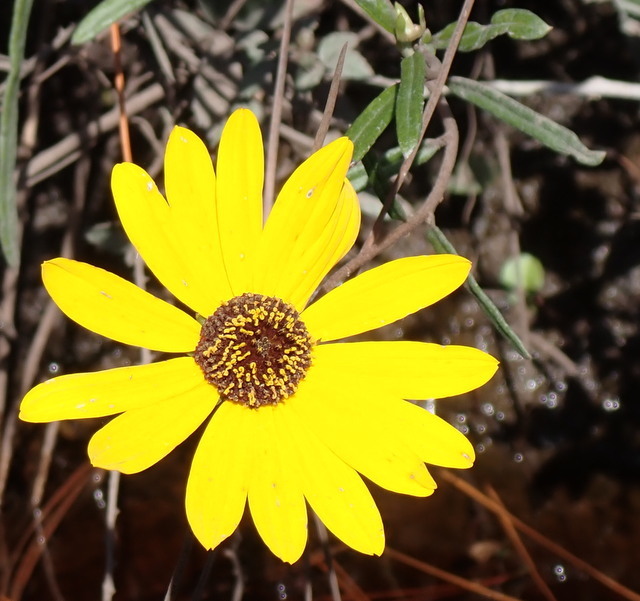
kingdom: Plantae
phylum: Tracheophyta
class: Magnoliopsida
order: Asterales
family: Asteraceae
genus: Helianthus
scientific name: Helianthus angustifolius
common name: Swamp sunflower
